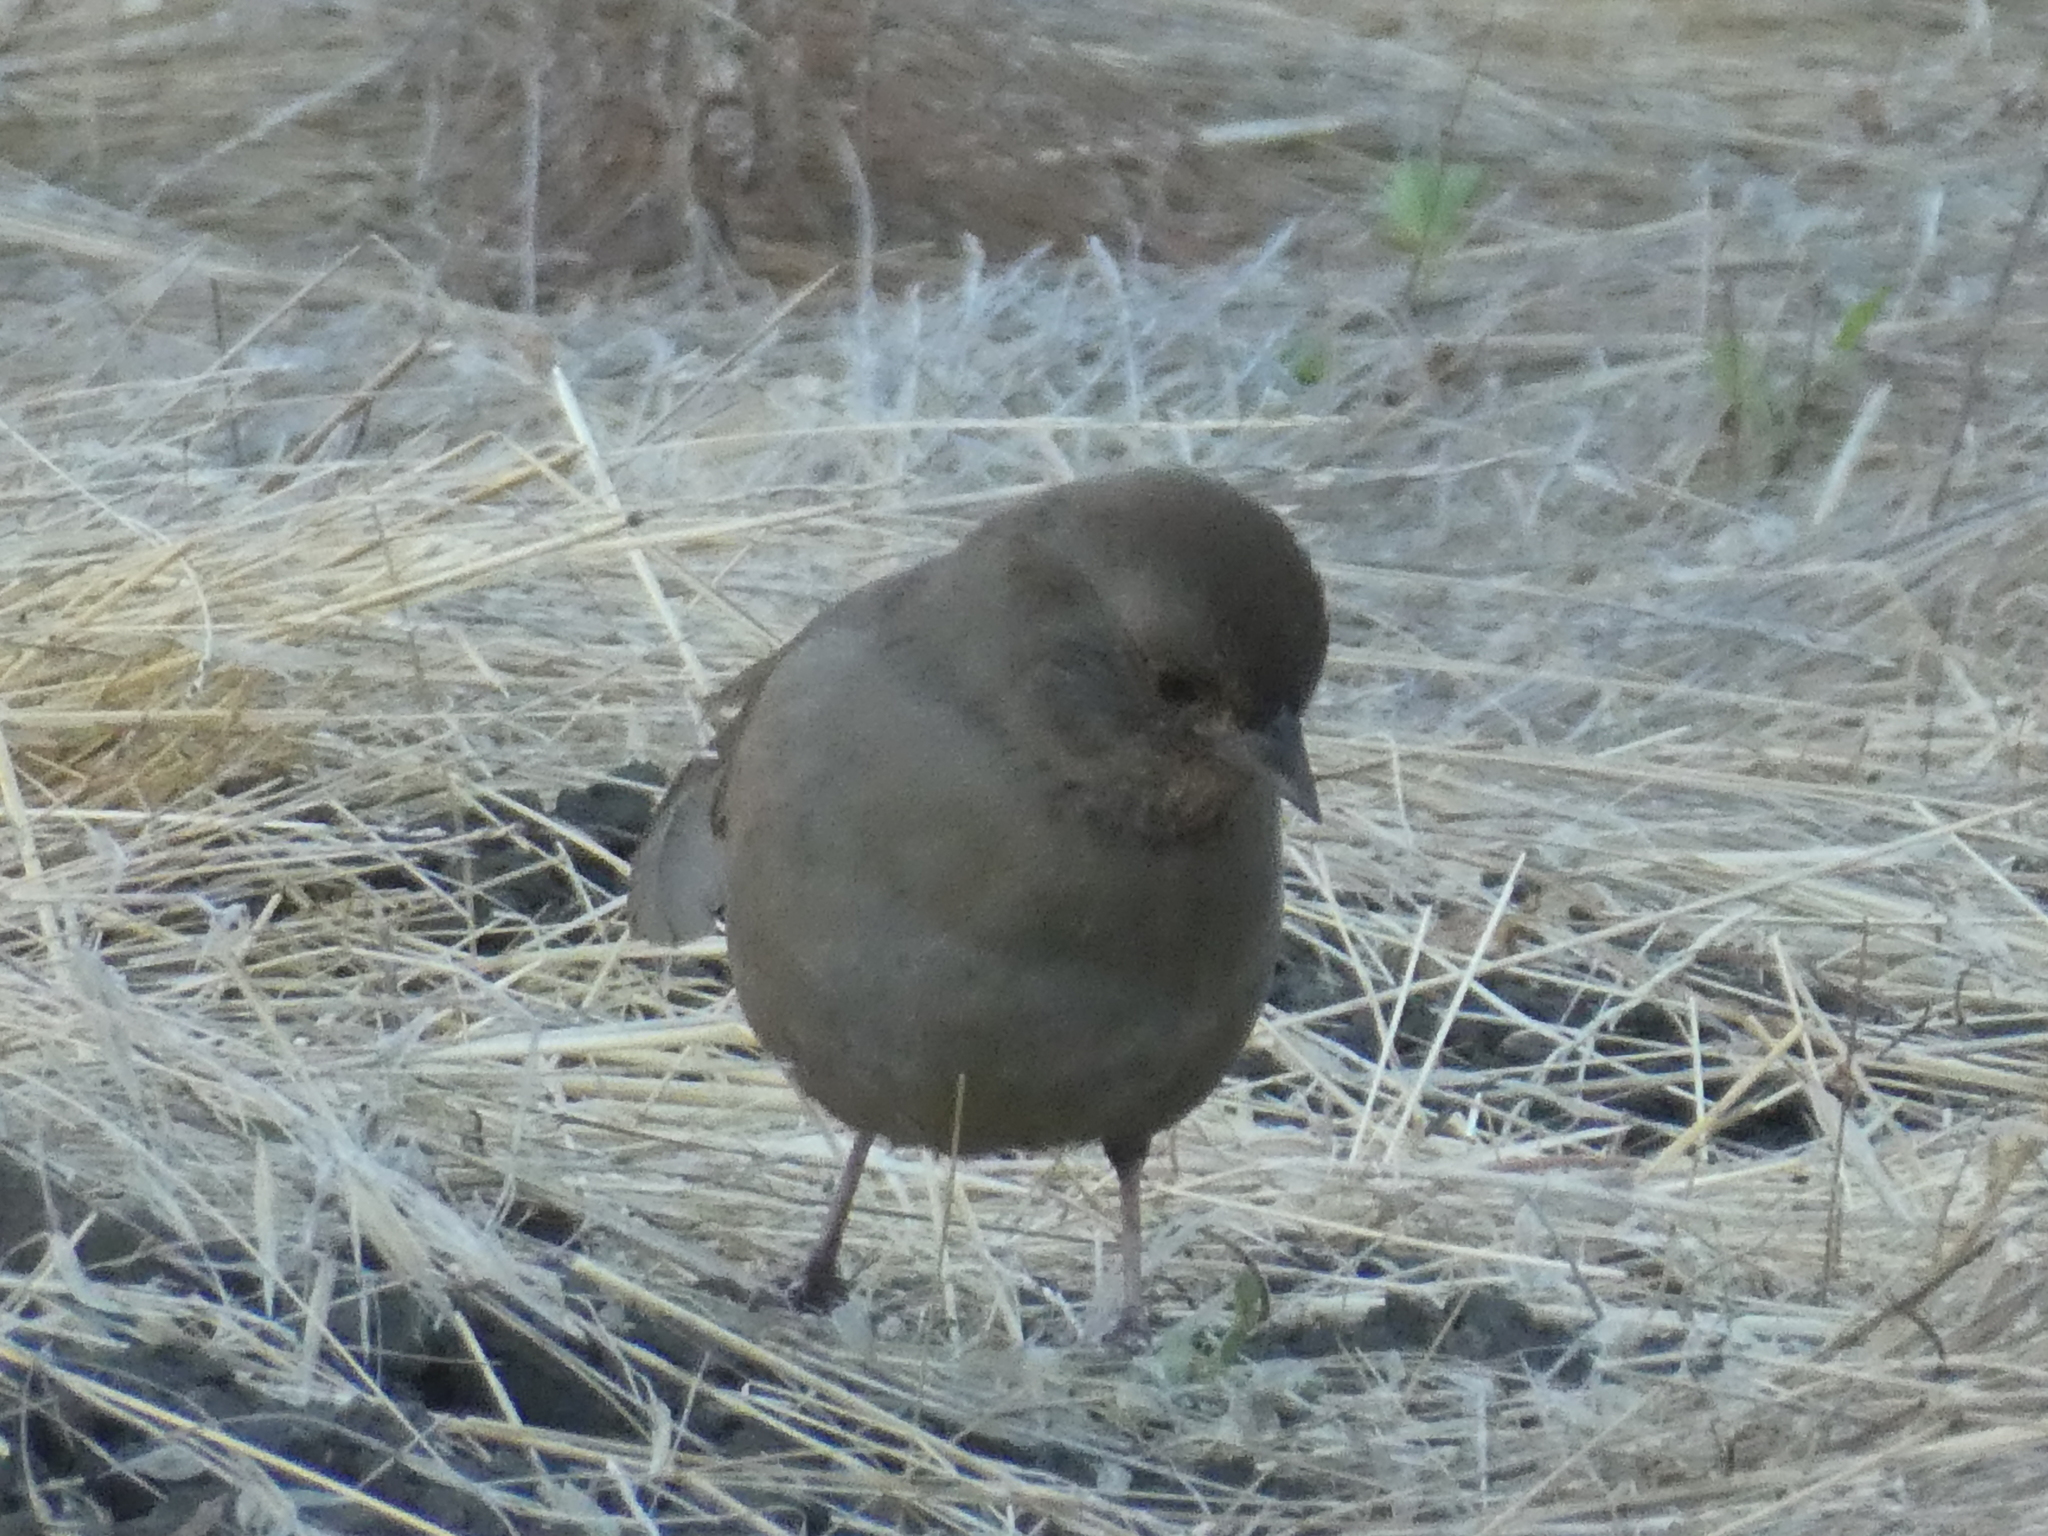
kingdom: Animalia
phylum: Chordata
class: Aves
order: Passeriformes
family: Passerellidae
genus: Melozone
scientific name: Melozone crissalis
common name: California towhee
